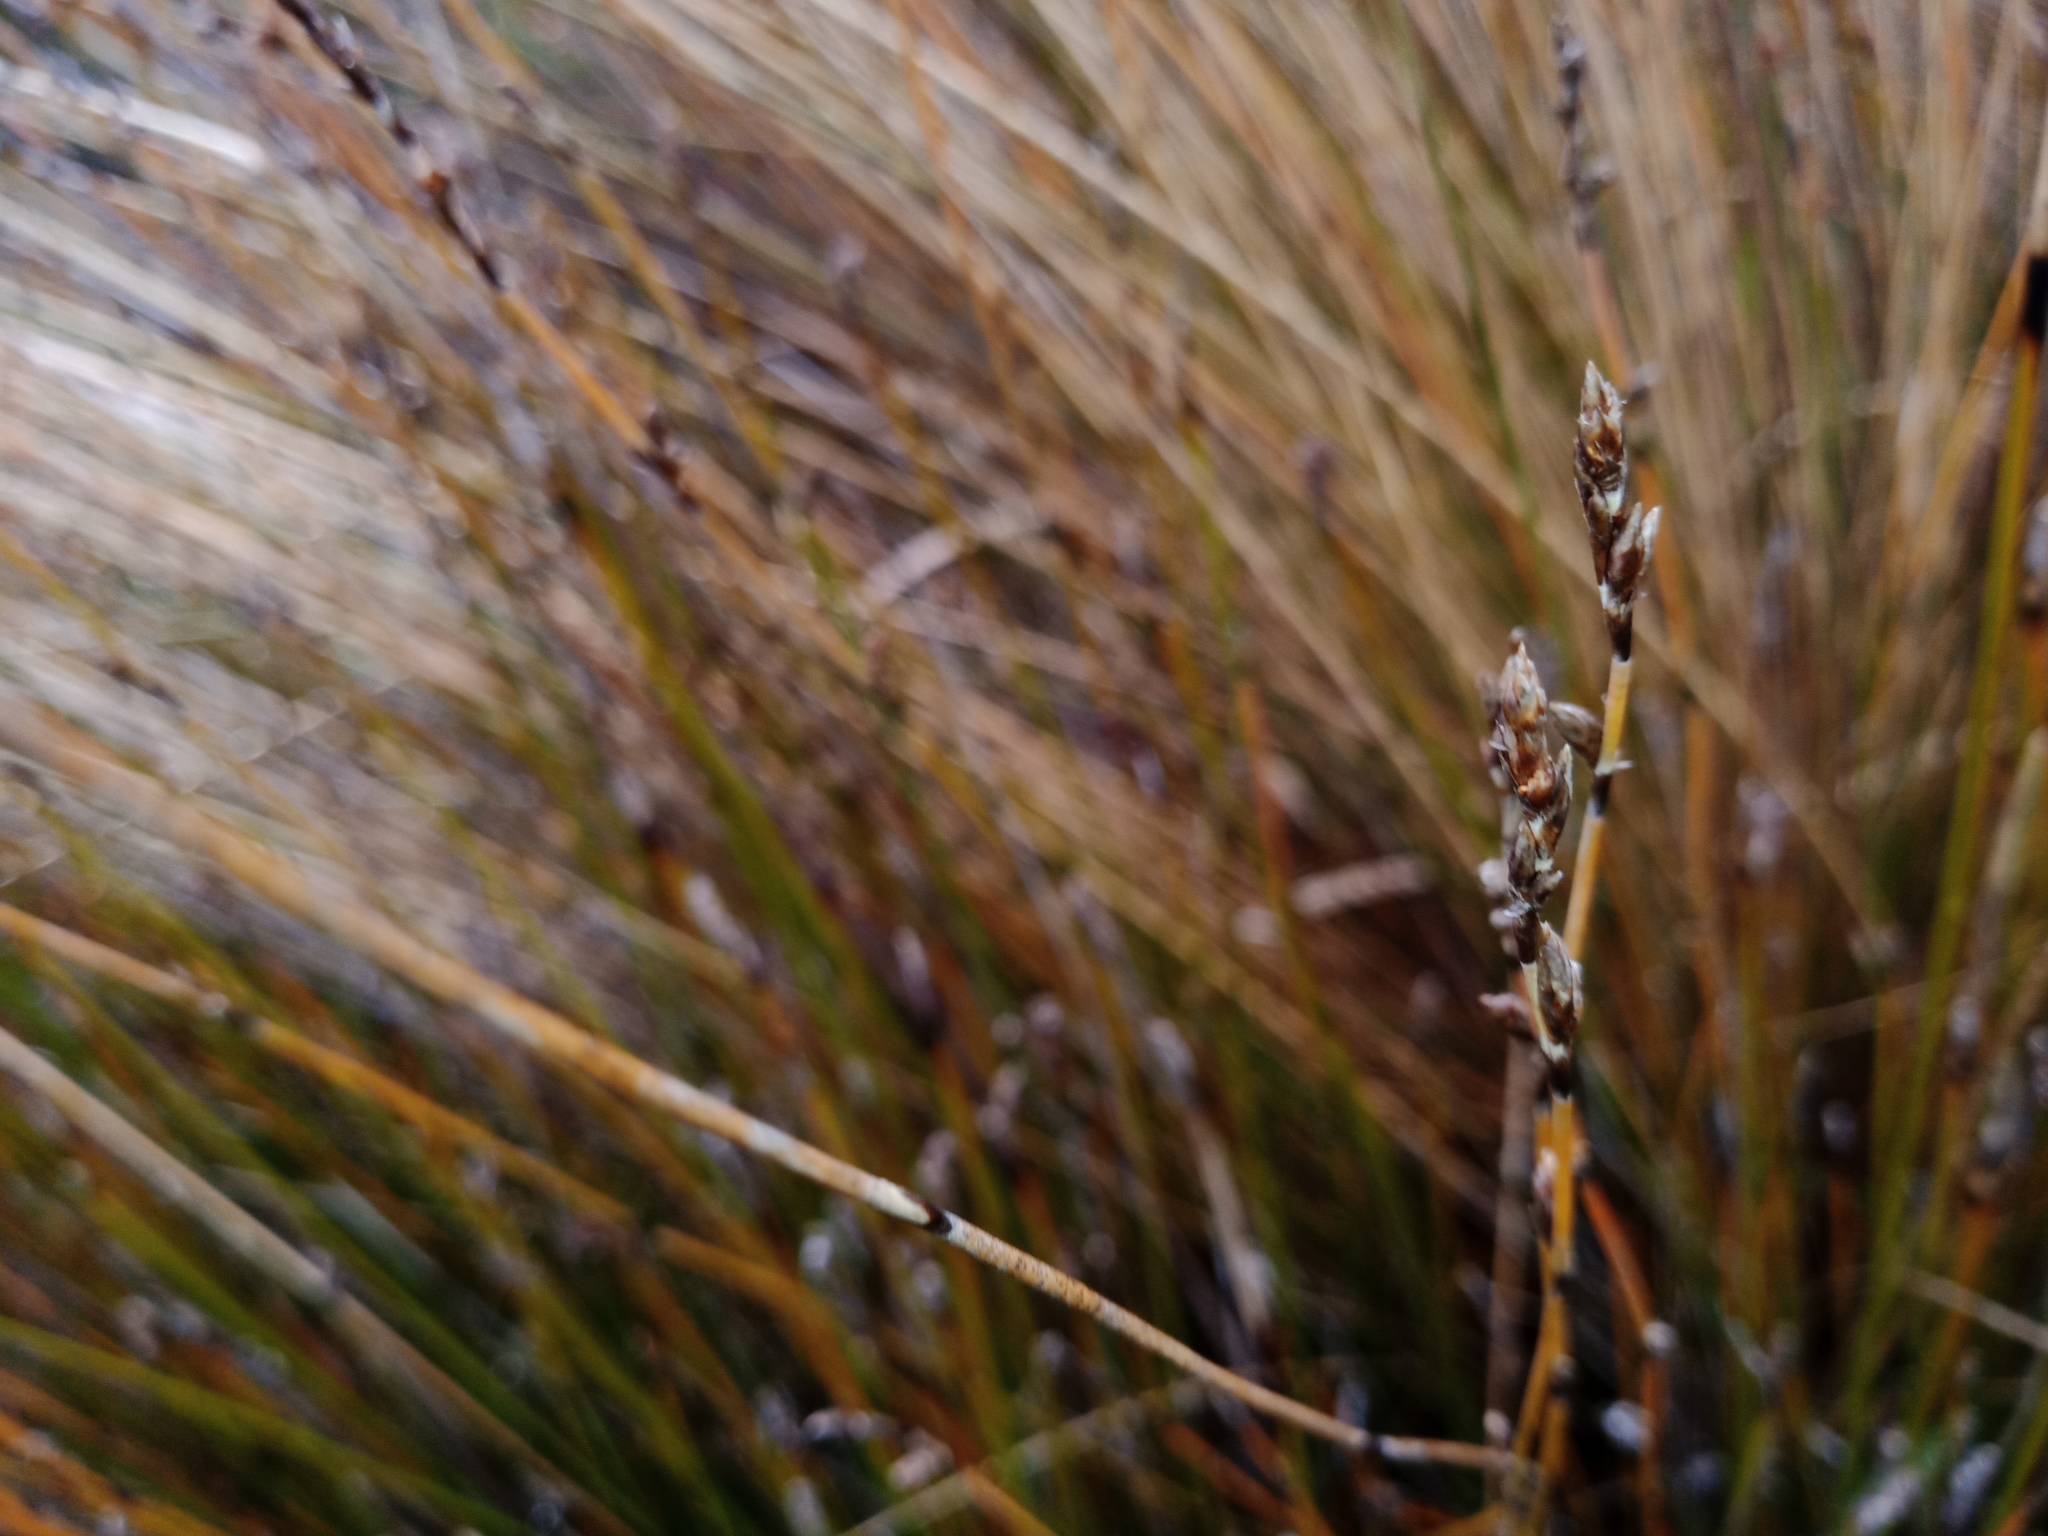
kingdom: Plantae
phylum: Tracheophyta
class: Liliopsida
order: Poales
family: Restionaceae
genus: Apodasmia
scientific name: Apodasmia similis
